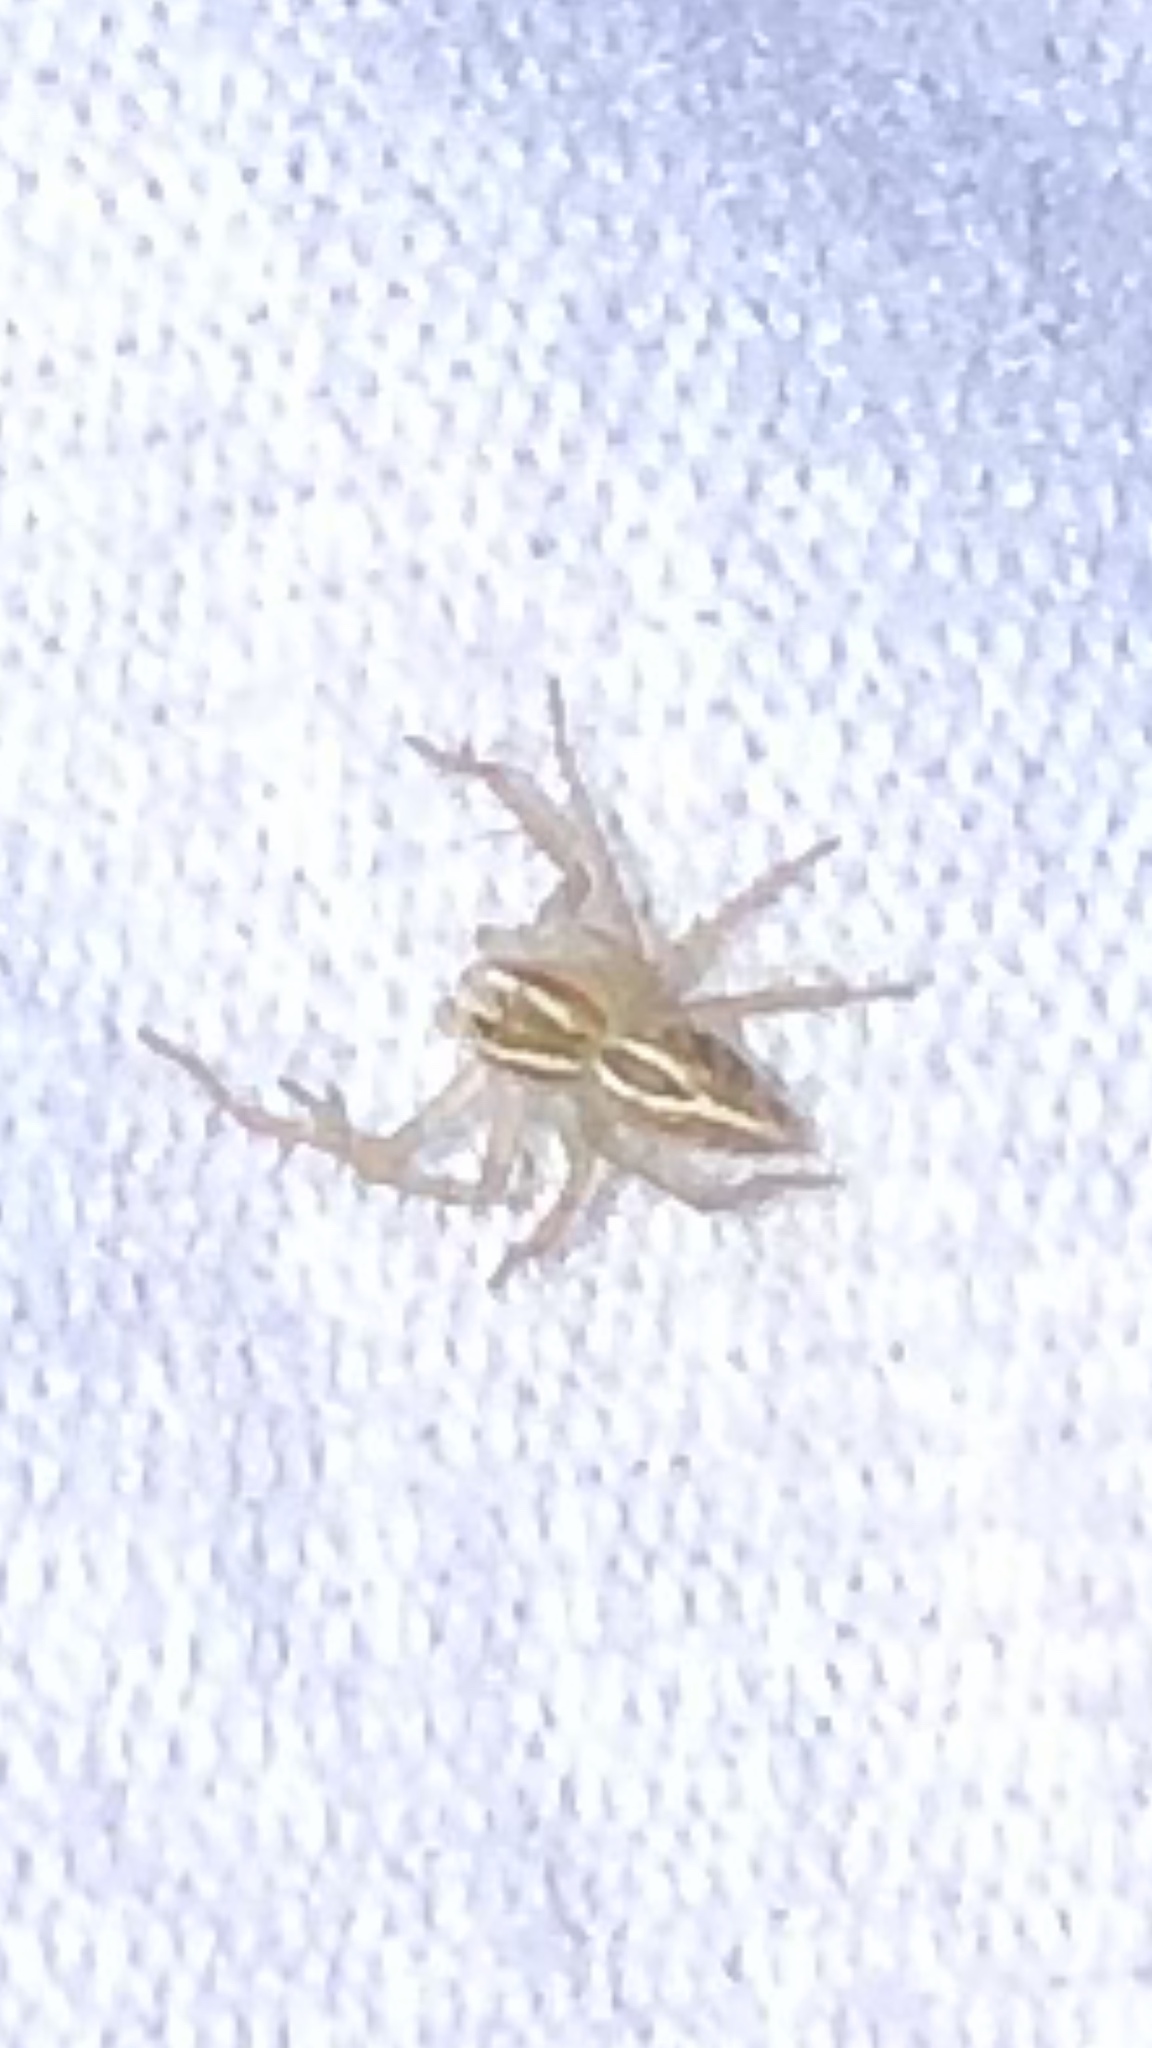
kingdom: Animalia
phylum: Arthropoda
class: Arachnida
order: Araneae
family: Oxyopidae
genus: Oxyopes
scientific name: Oxyopes salticus
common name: Lynx spiders
